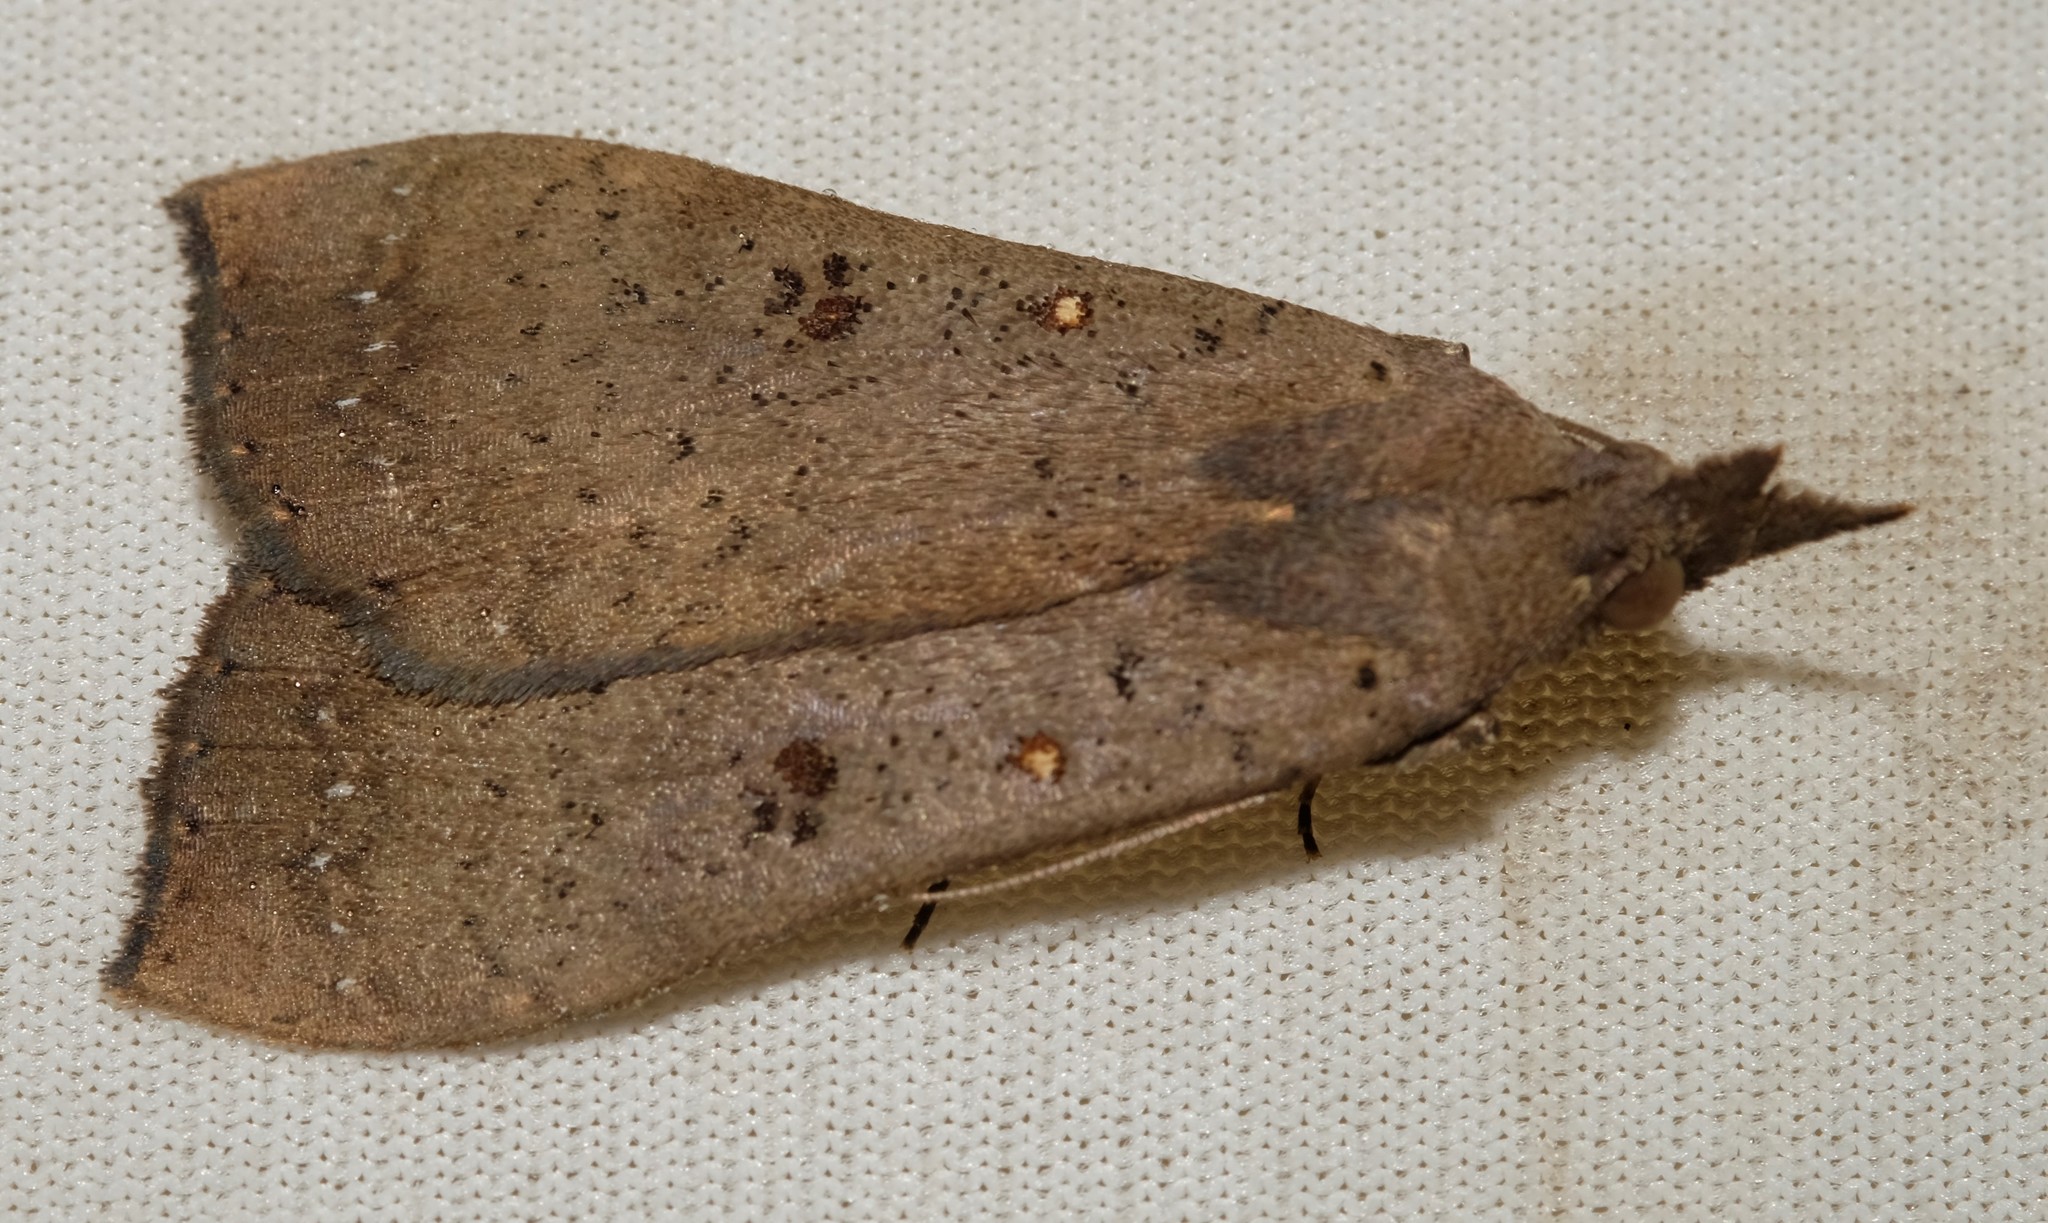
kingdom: Animalia
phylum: Arthropoda
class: Insecta
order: Lepidoptera
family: Erebidae
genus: Rhapsa
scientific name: Rhapsa suscitatalis
